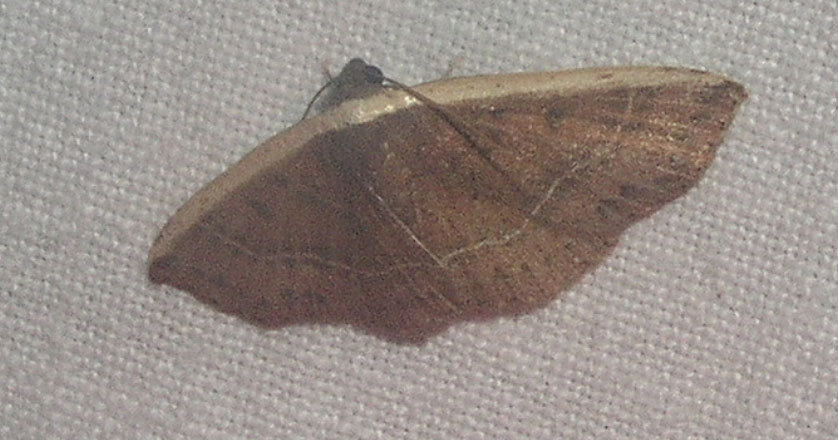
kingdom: Animalia
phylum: Arthropoda
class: Insecta
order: Lepidoptera
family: Noctuidae
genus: Ozarba
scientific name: Ozarba albocostaliata
